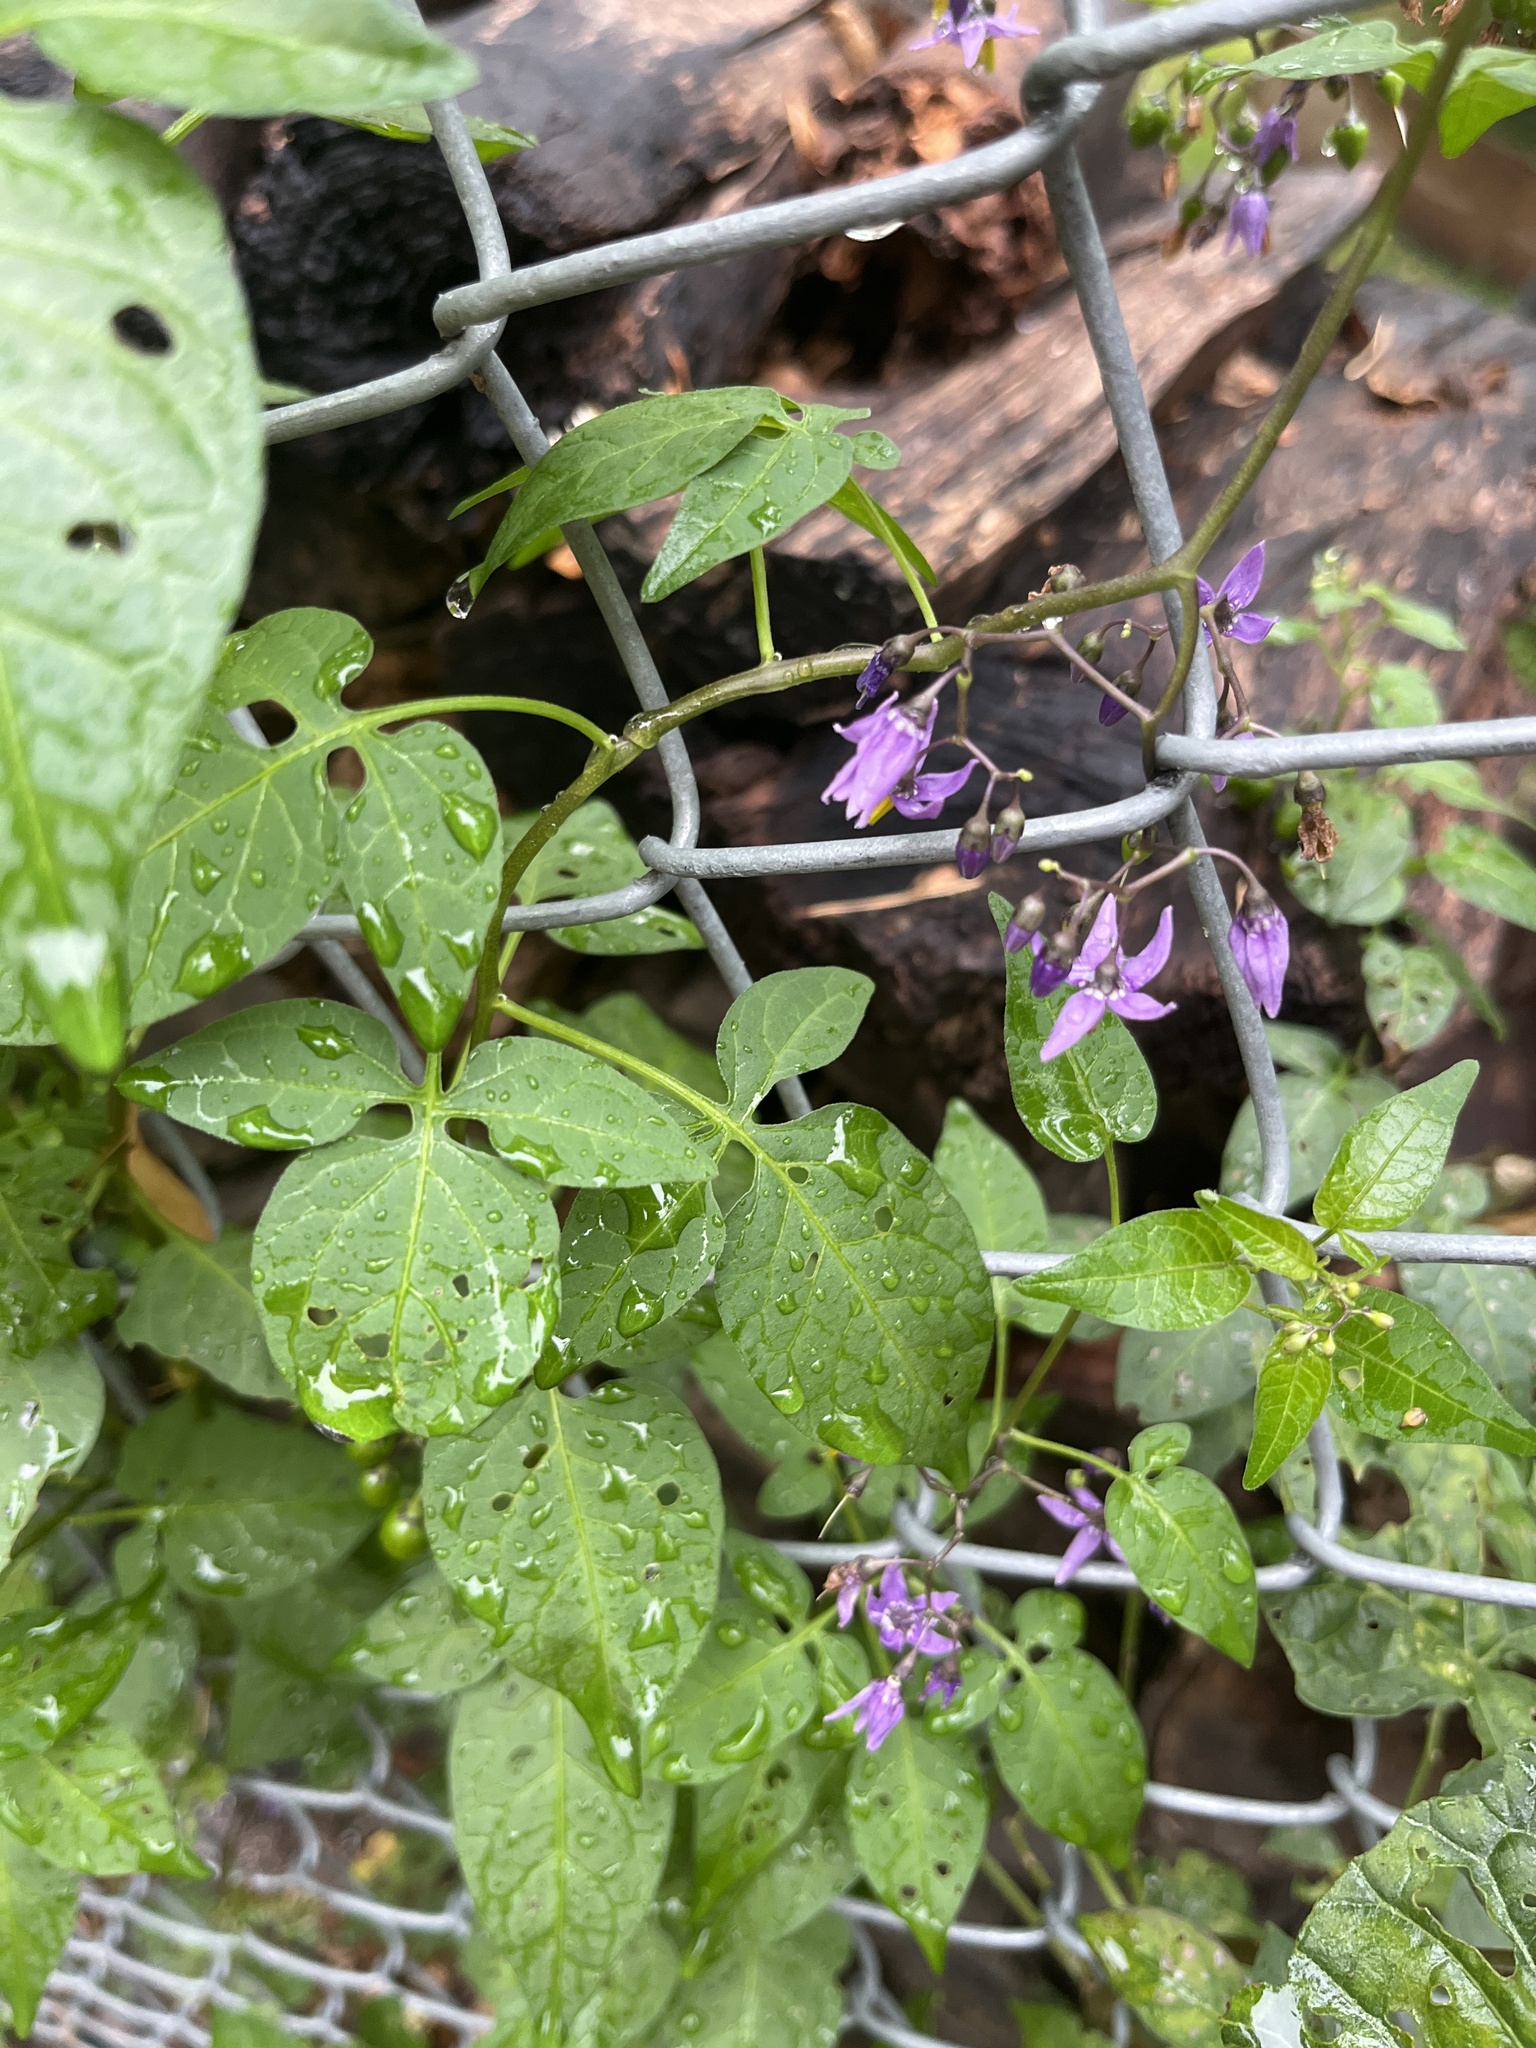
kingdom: Plantae
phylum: Tracheophyta
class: Magnoliopsida
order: Solanales
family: Solanaceae
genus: Solanum
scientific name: Solanum dulcamara
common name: Climbing nightshade
